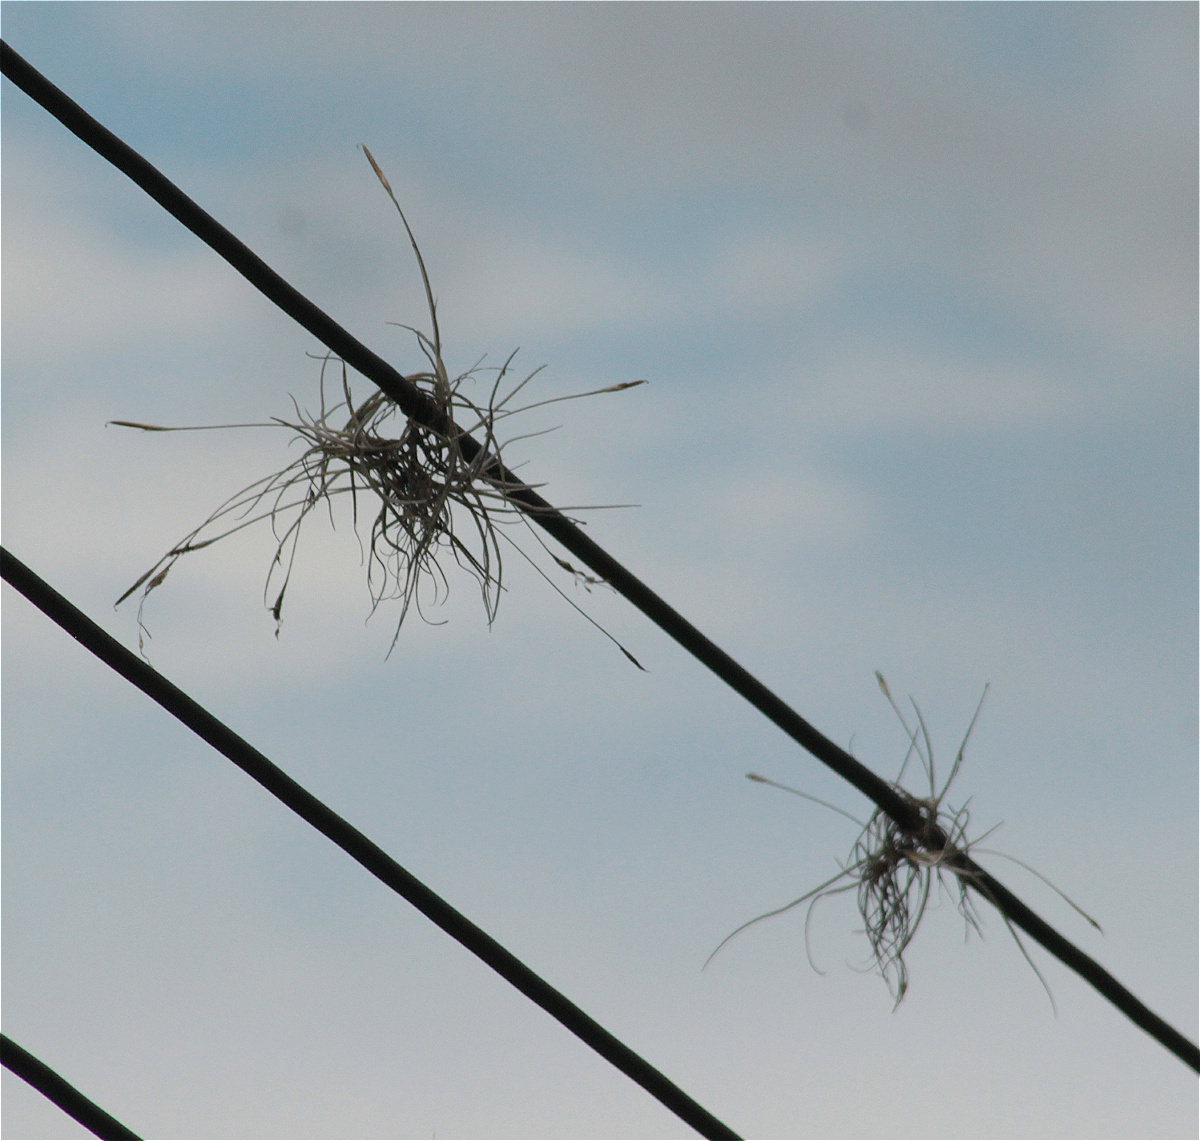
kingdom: Plantae
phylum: Tracheophyta
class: Liliopsida
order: Poales
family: Bromeliaceae
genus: Tillandsia
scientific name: Tillandsia recurvata
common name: Small ballmoss
